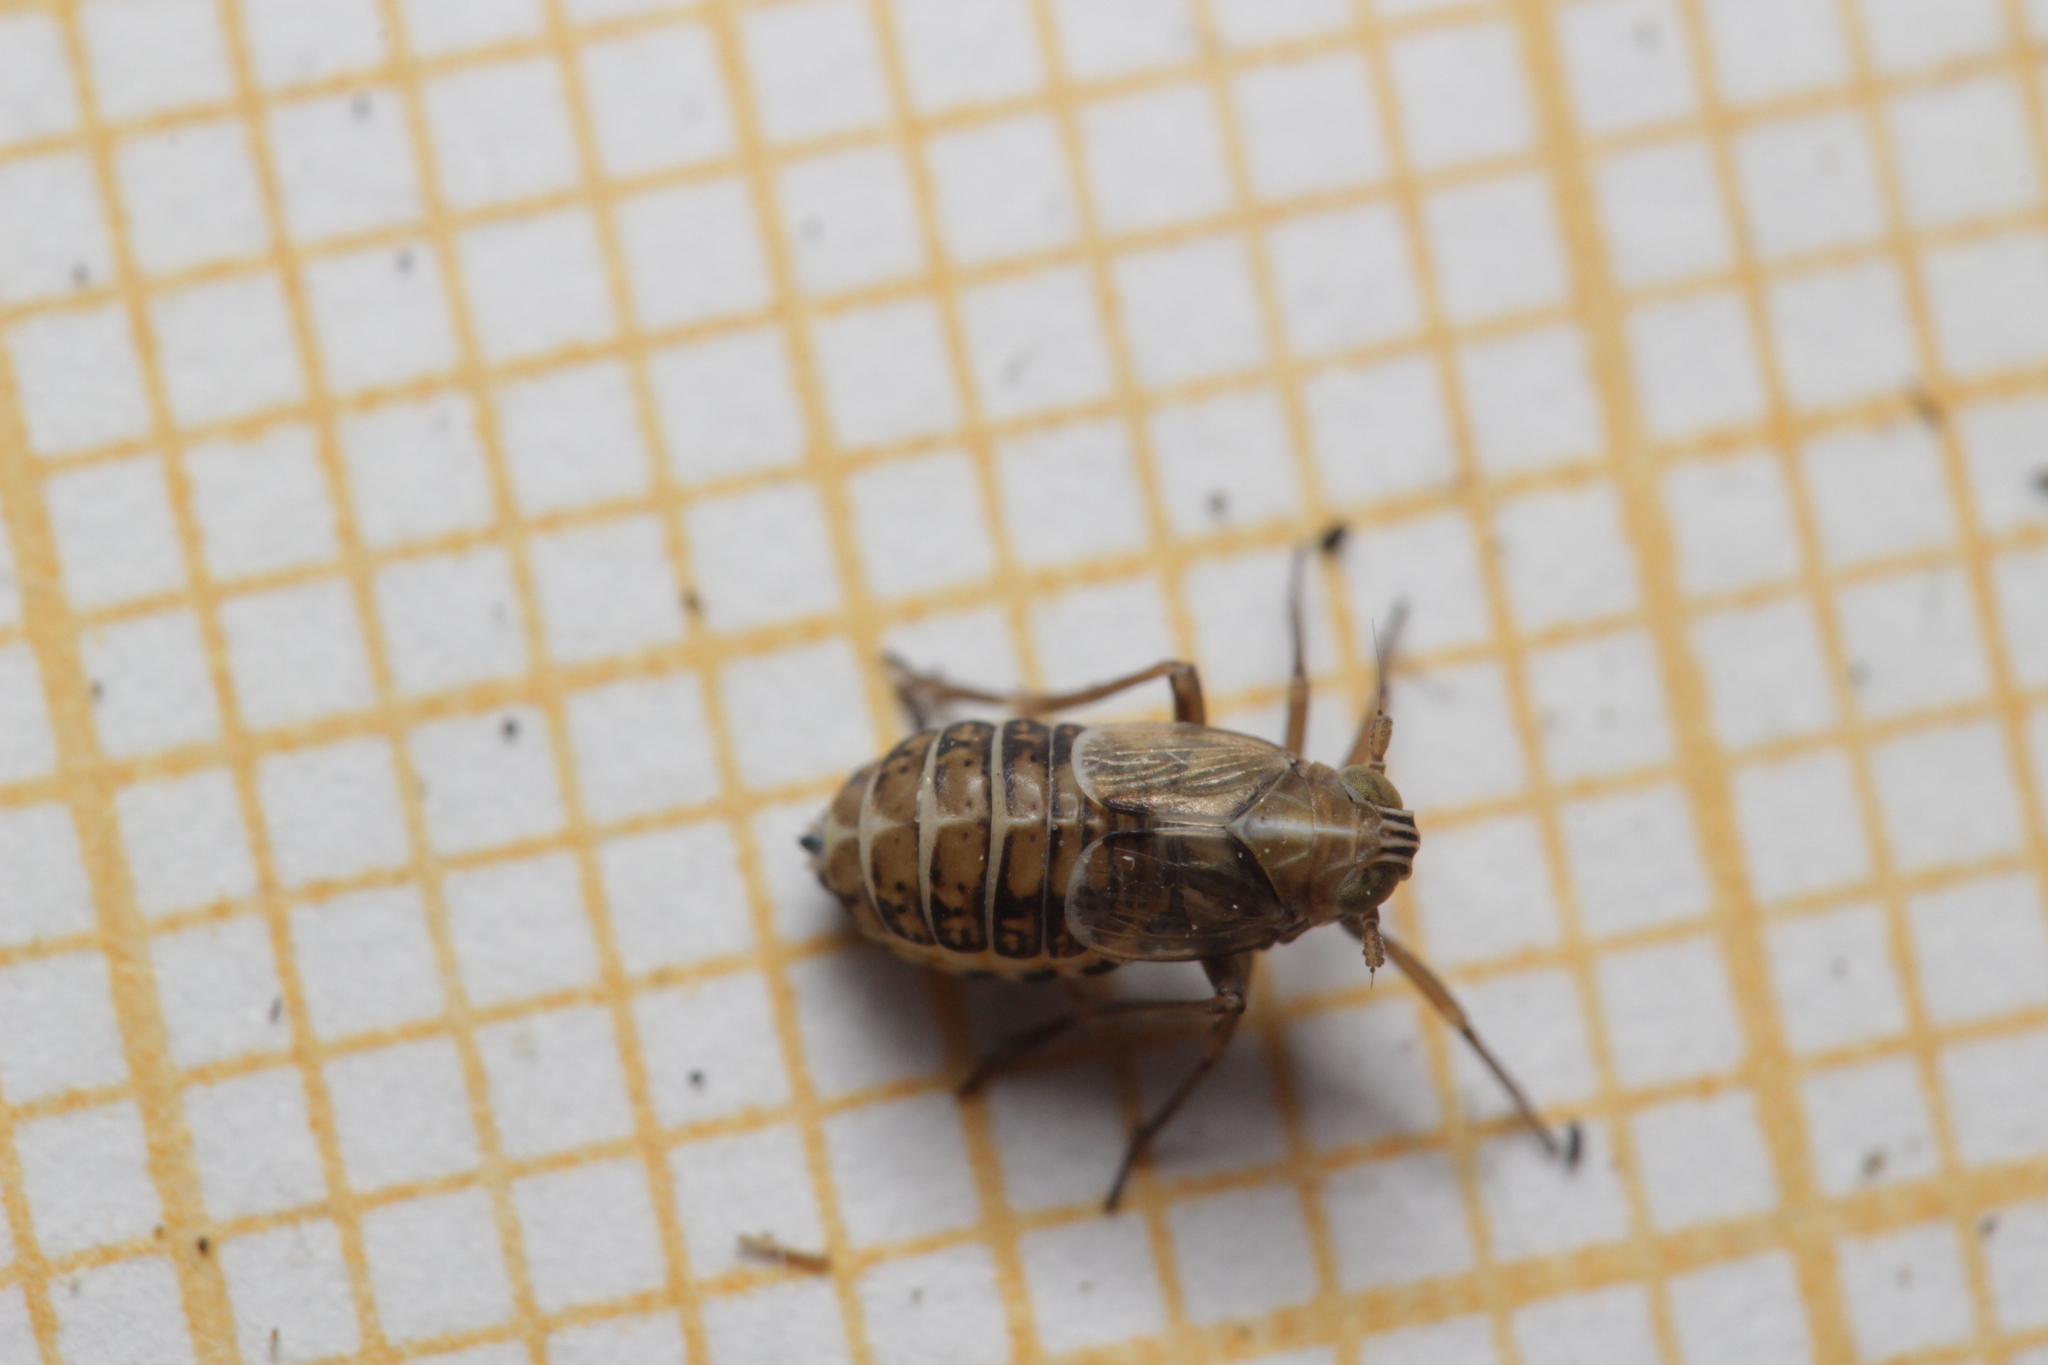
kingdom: Animalia
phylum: Arthropoda
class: Insecta
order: Hemiptera
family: Delphacidae
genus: Dicranotropis
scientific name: Dicranotropis hamata
